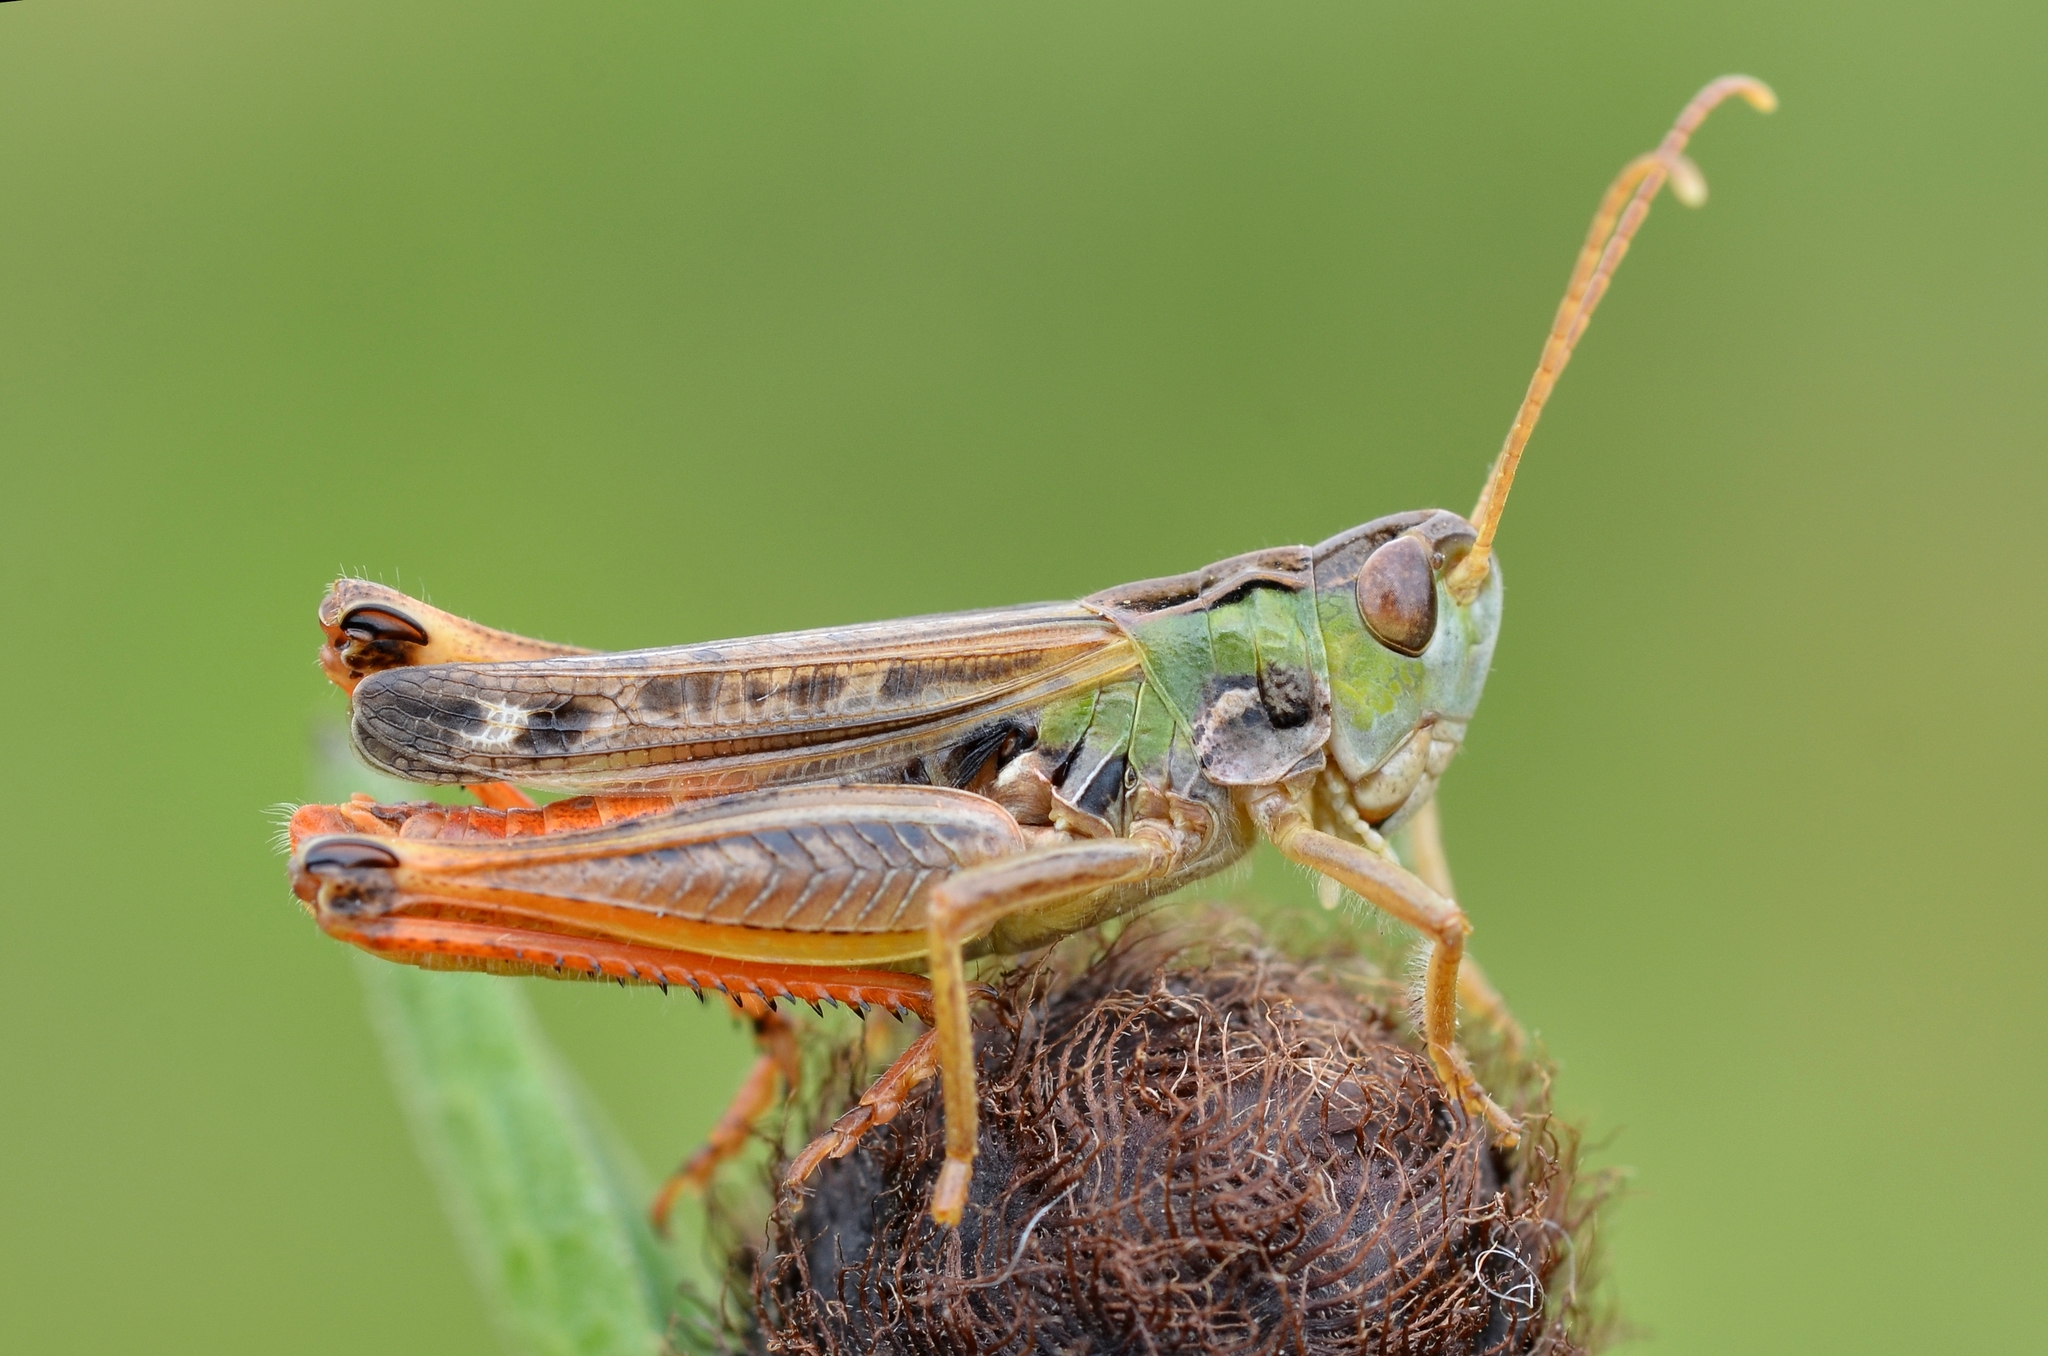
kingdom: Animalia
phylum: Arthropoda
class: Insecta
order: Orthoptera
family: Acrididae
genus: Stenobothrus
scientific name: Stenobothrus nigromaculatus
